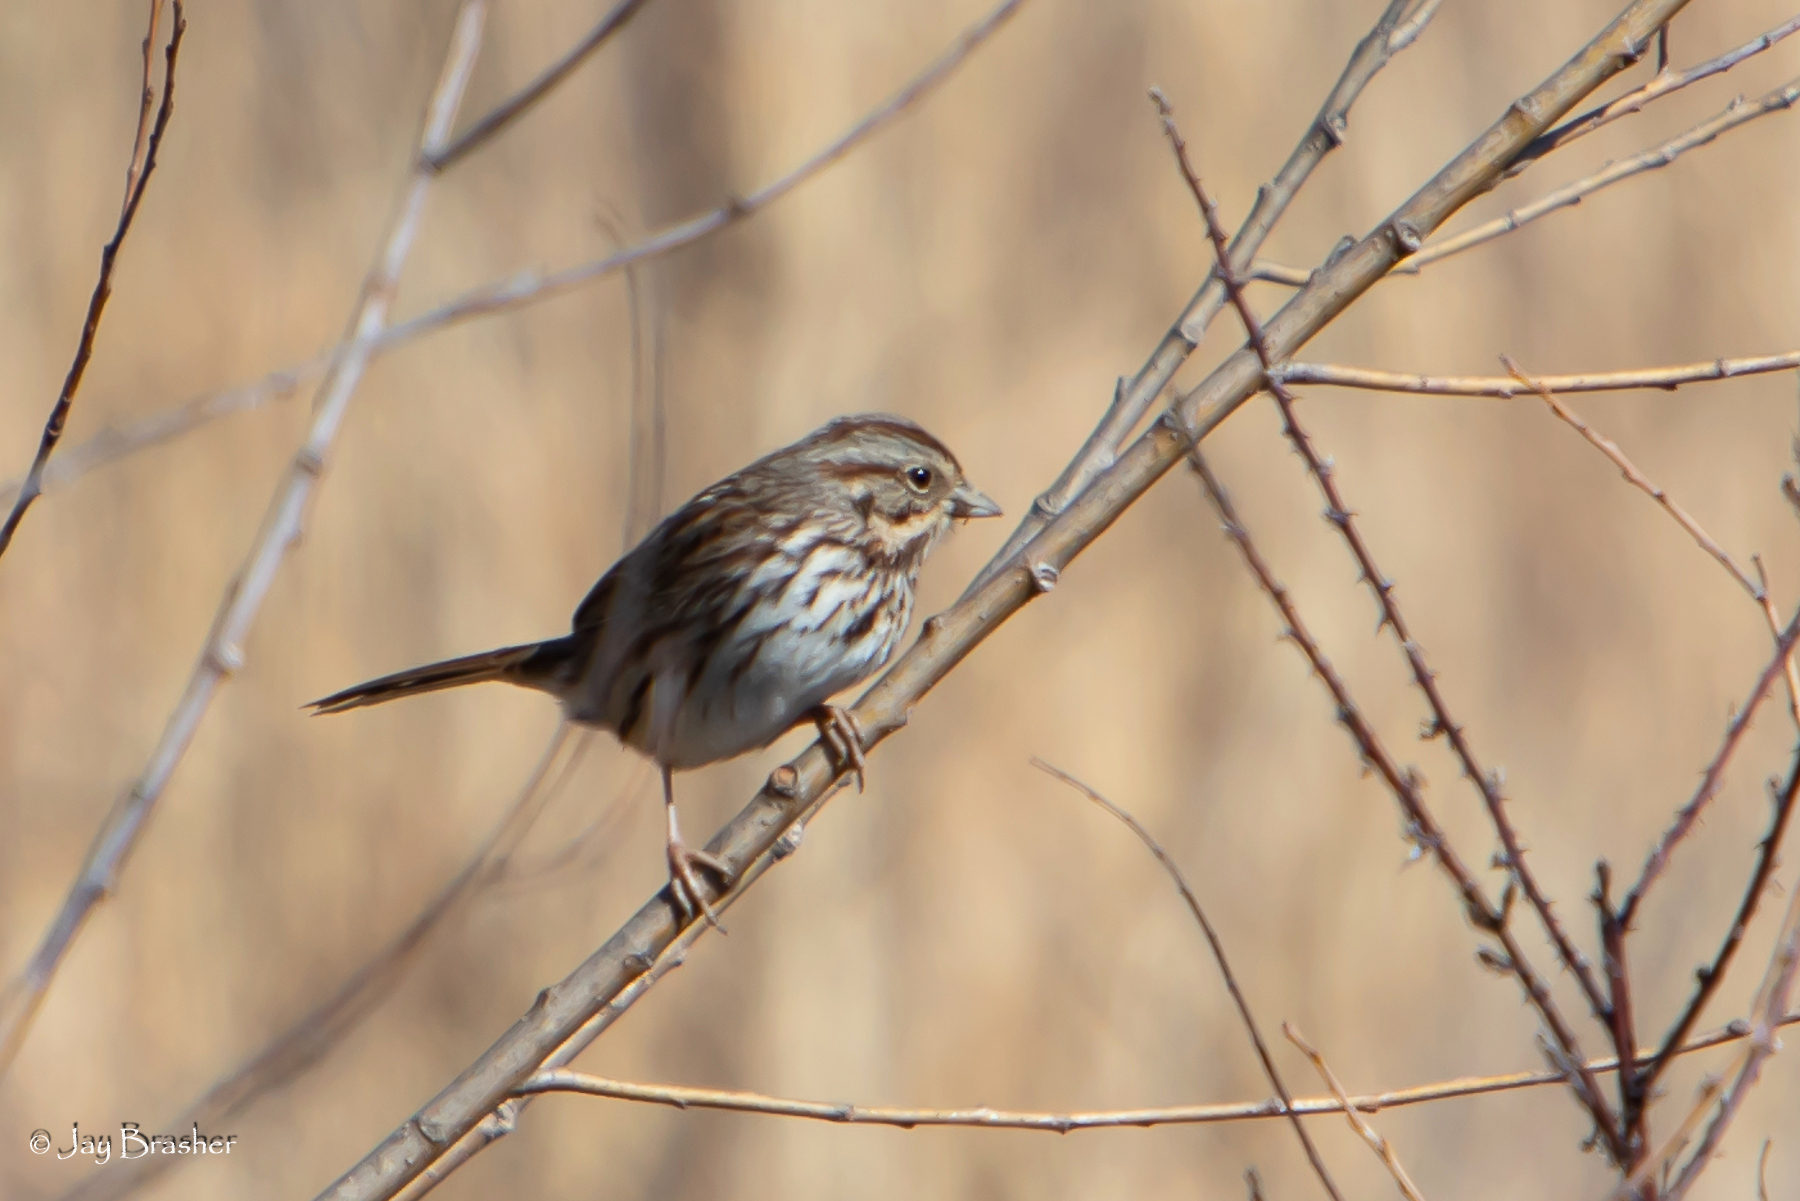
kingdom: Animalia
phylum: Chordata
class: Aves
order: Passeriformes
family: Passerellidae
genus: Melospiza
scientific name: Melospiza melodia
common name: Song sparrow
